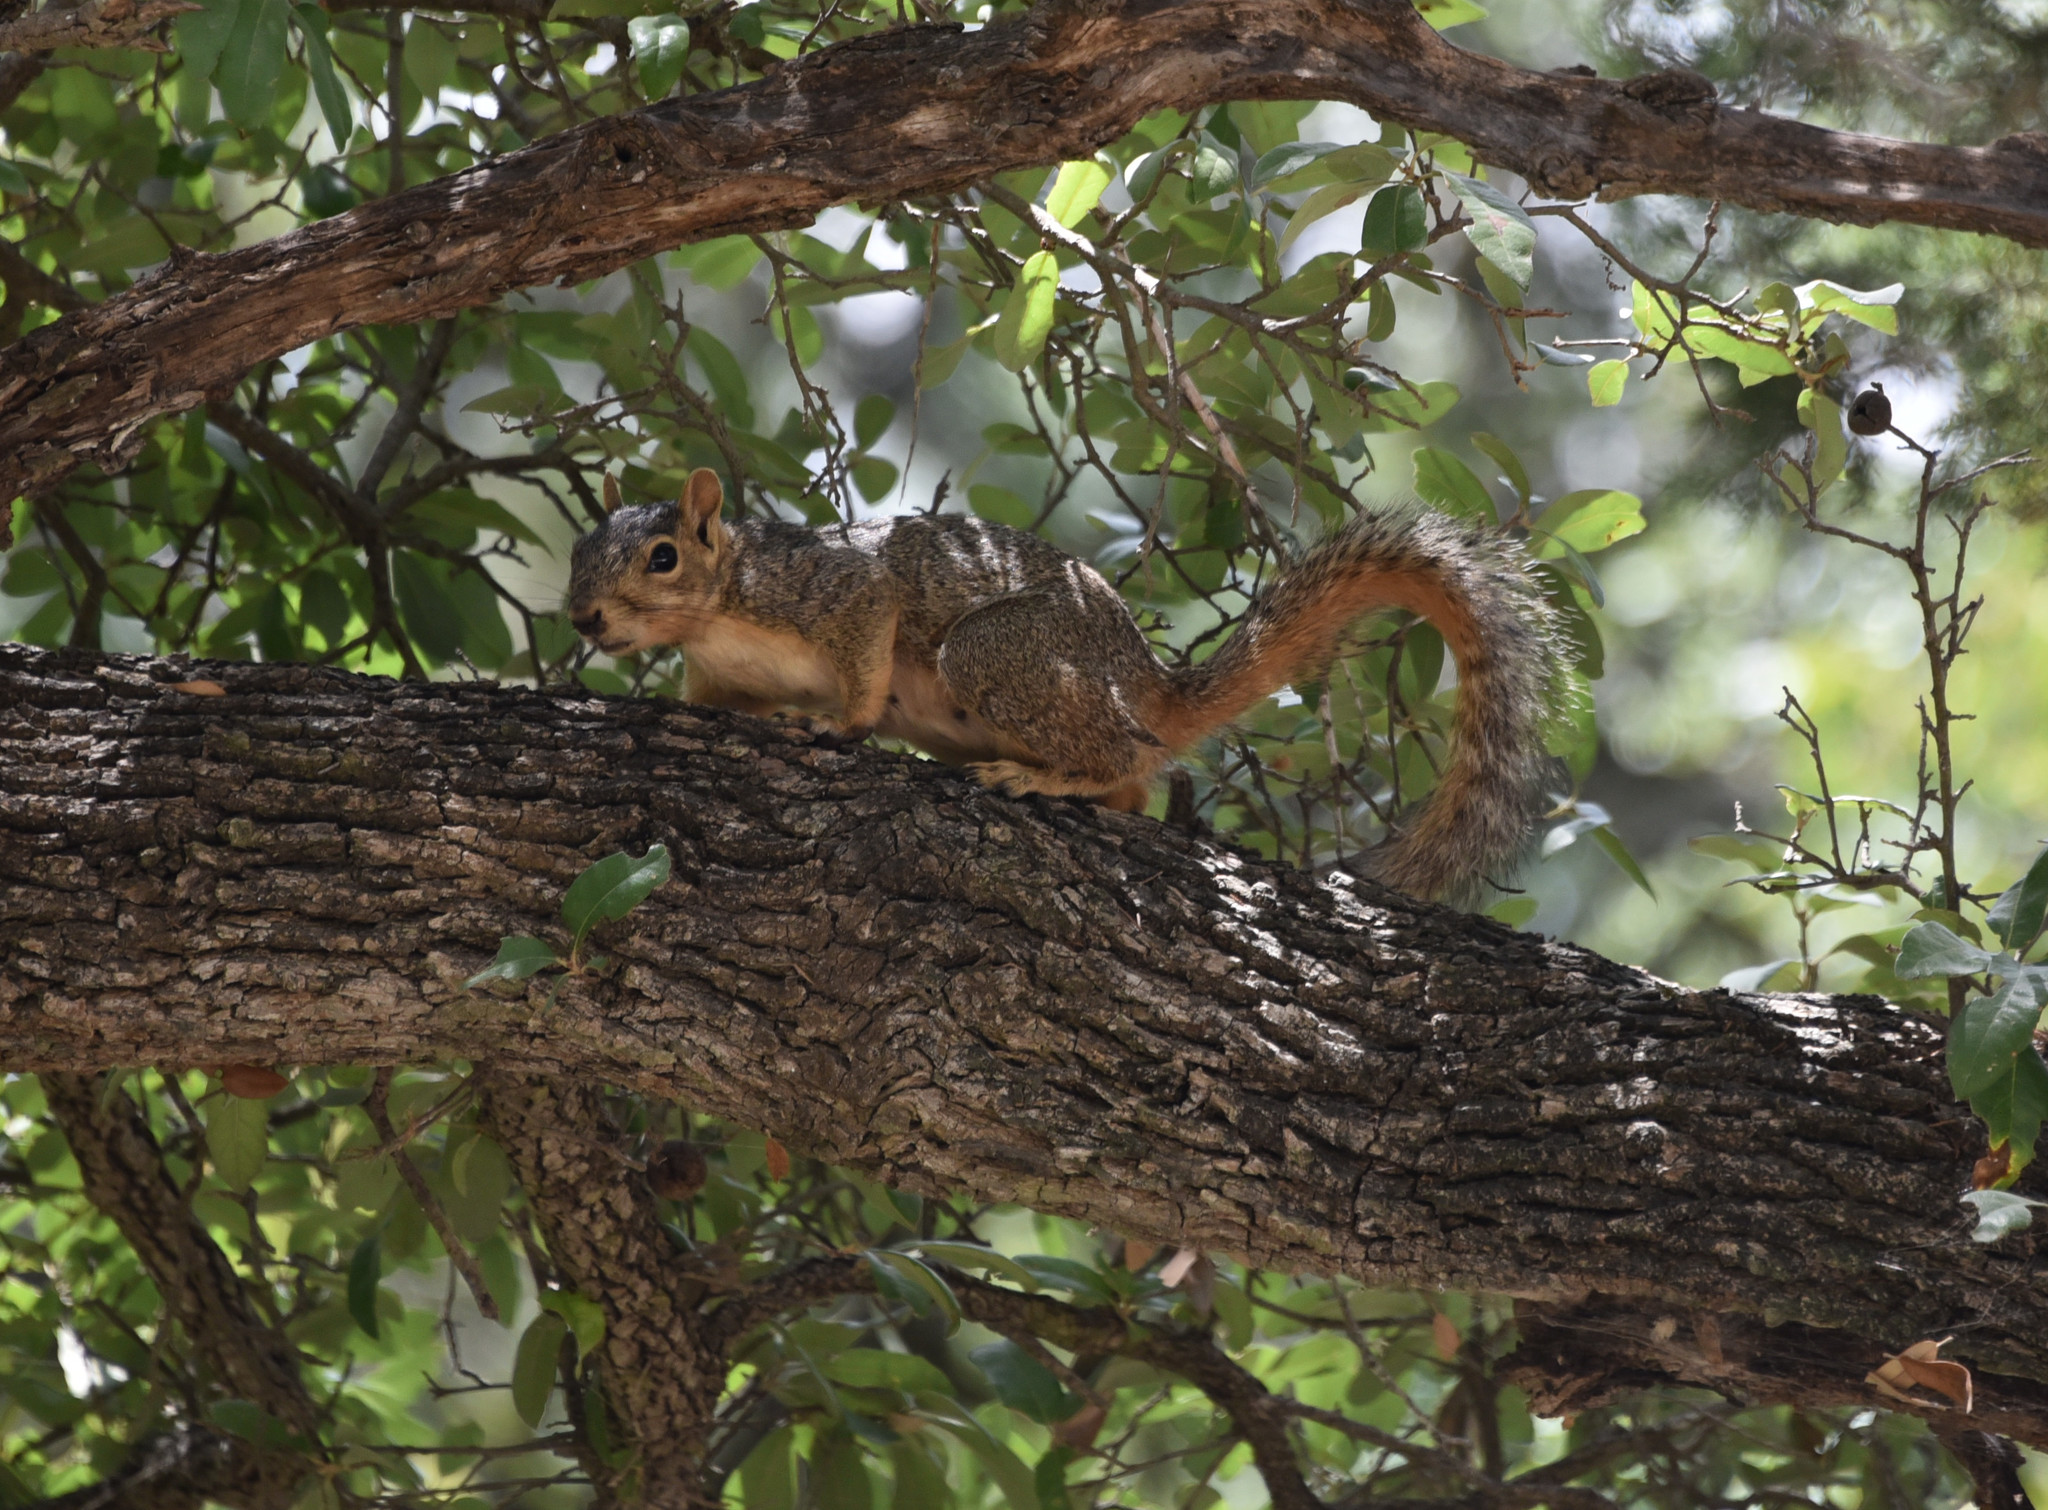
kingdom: Animalia
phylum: Chordata
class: Mammalia
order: Rodentia
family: Sciuridae
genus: Sciurus
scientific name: Sciurus niger
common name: Fox squirrel
